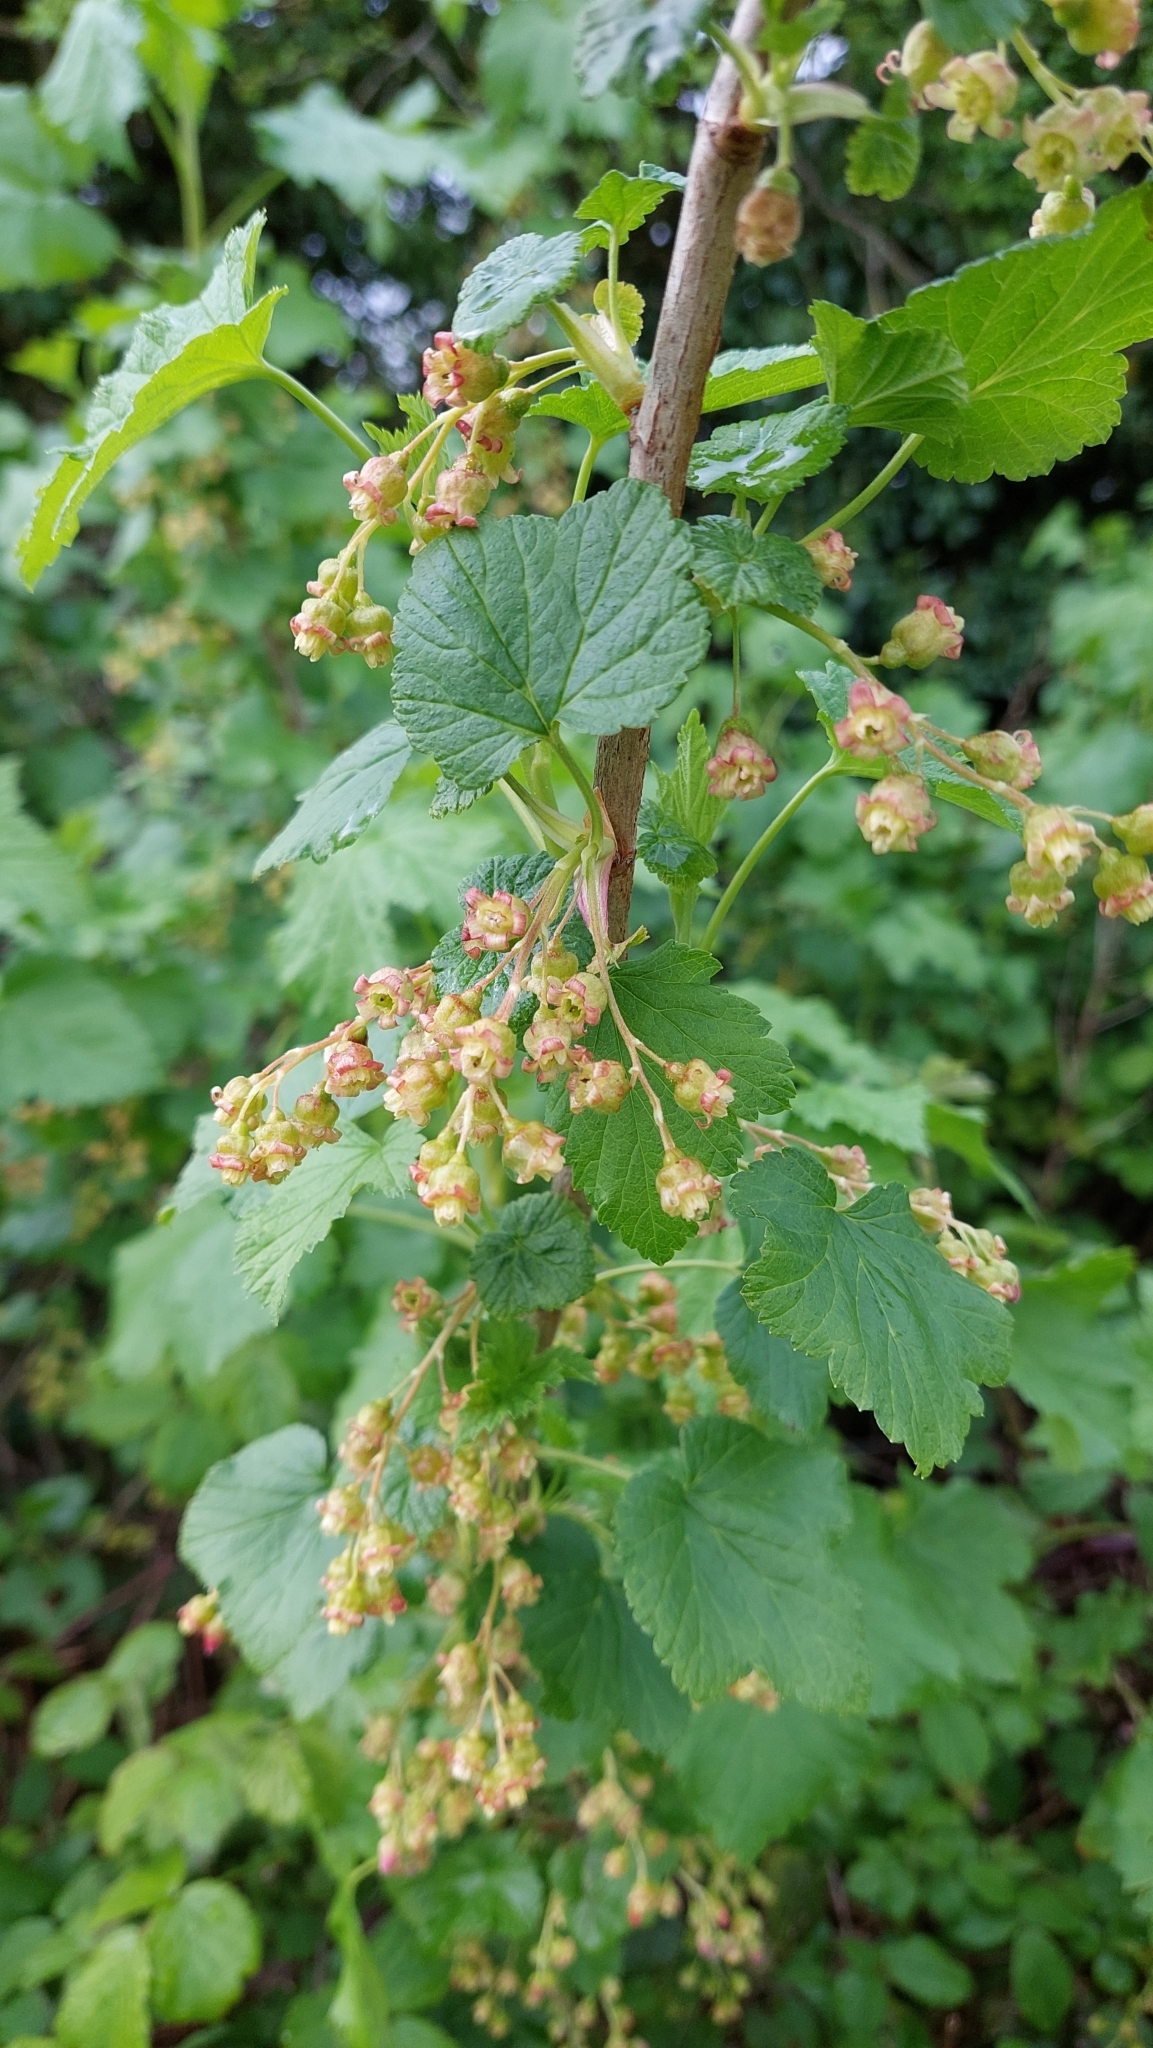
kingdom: Plantae
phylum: Tracheophyta
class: Magnoliopsida
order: Saxifragales
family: Grossulariaceae
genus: Ribes
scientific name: Ribes nigrum
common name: Black currant
